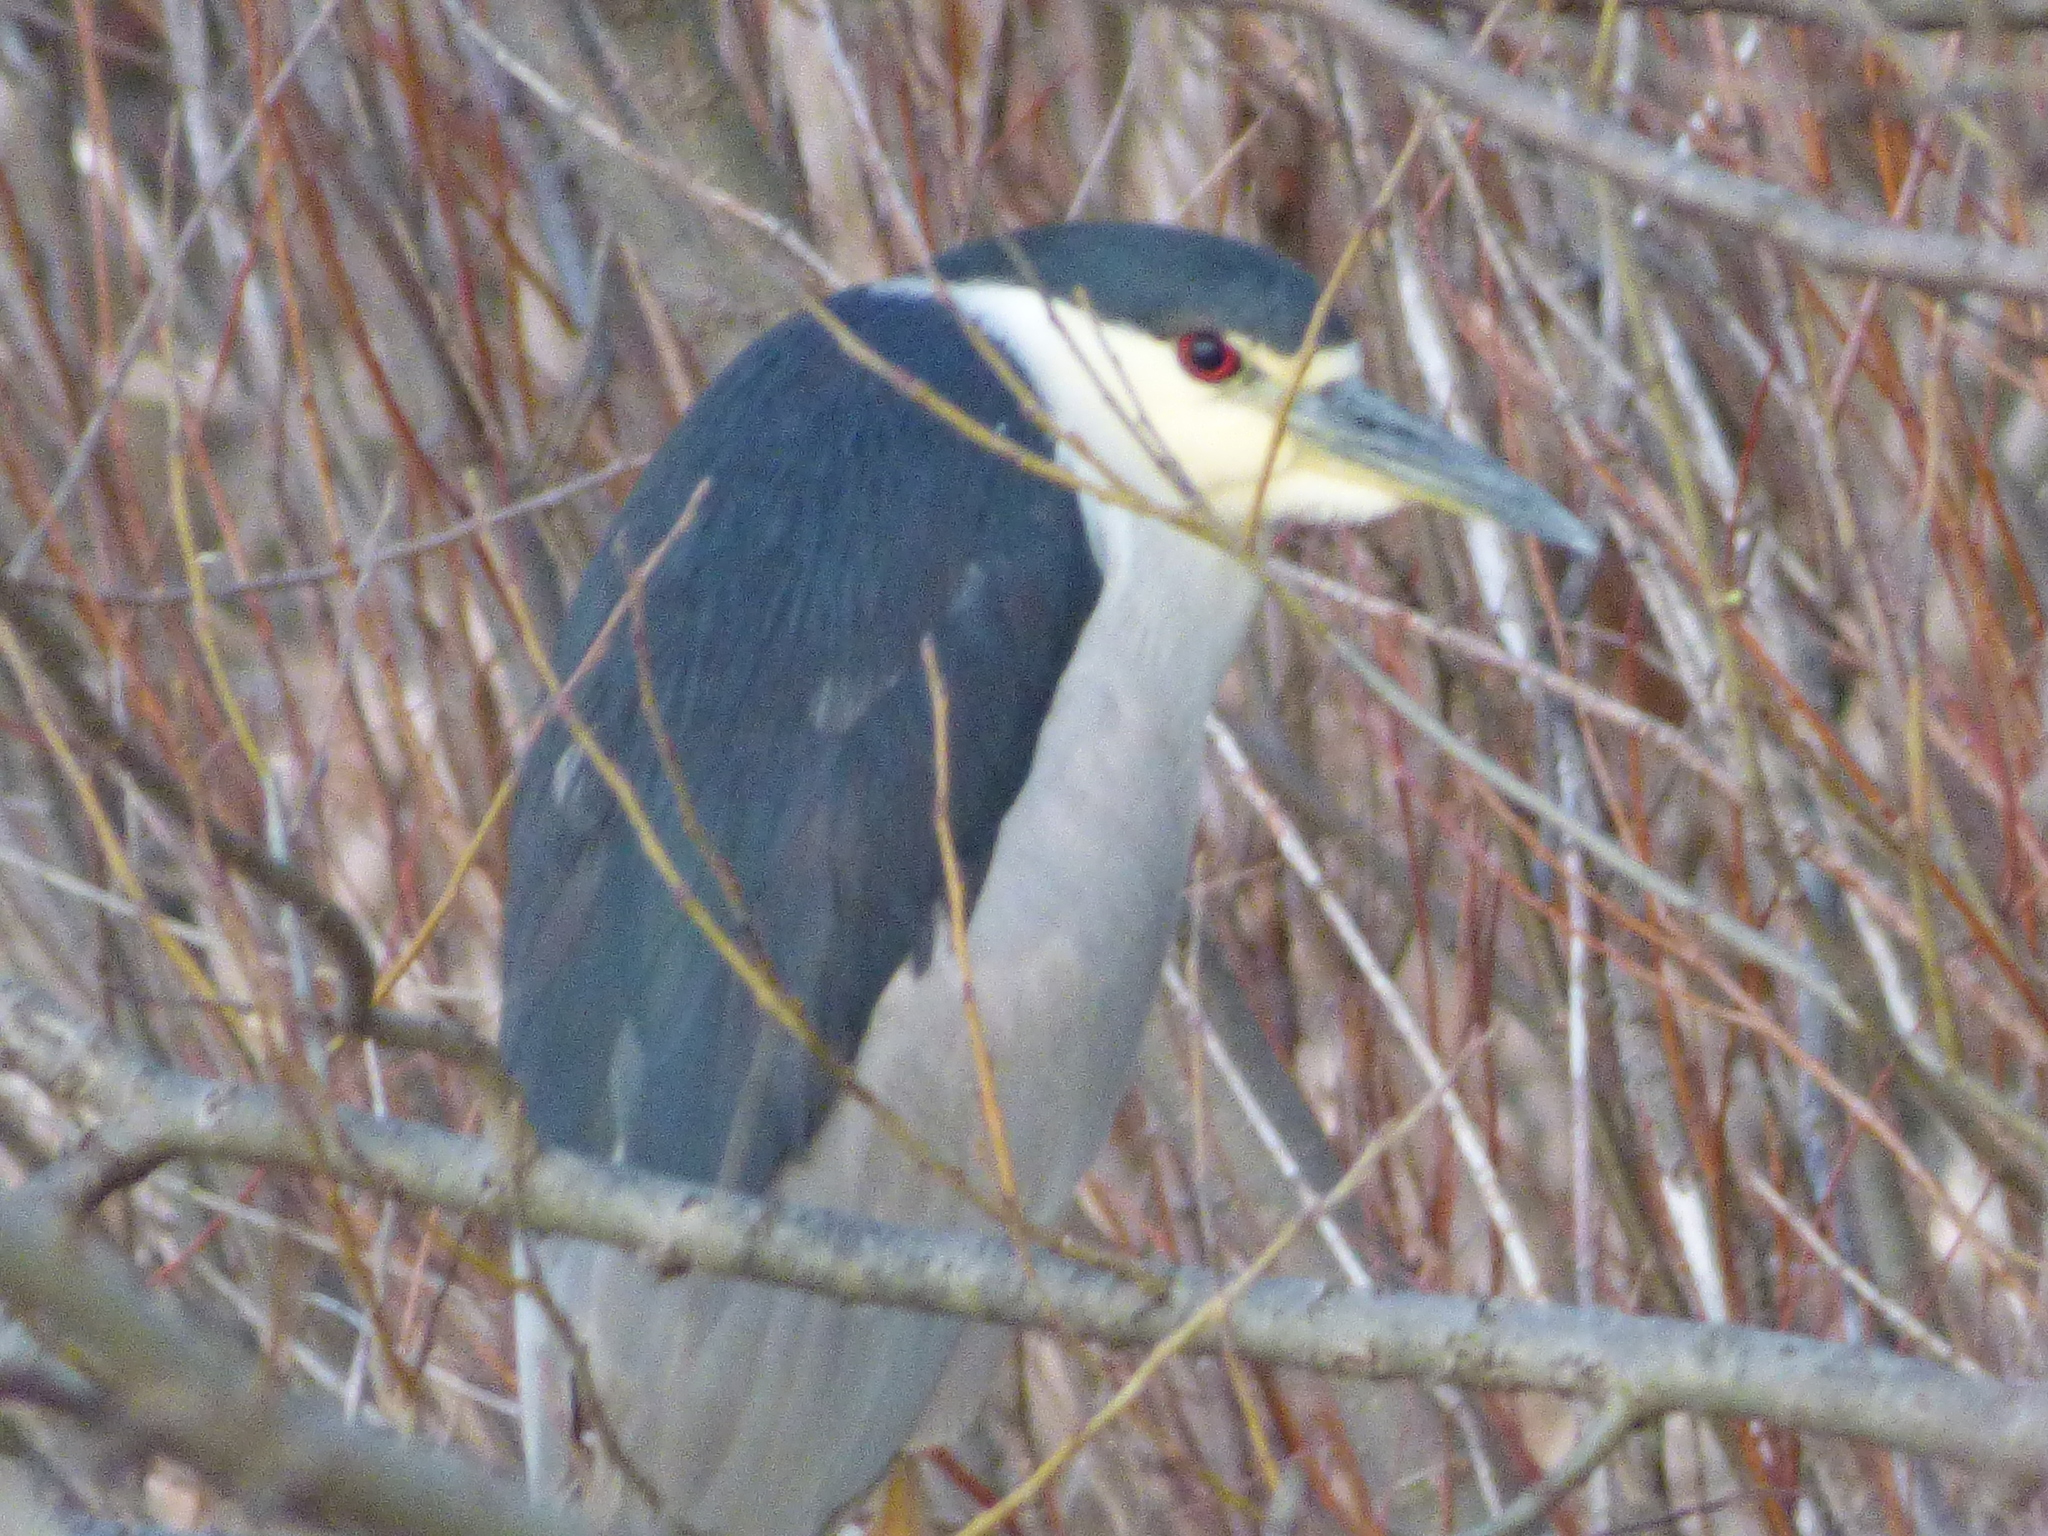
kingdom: Animalia
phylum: Chordata
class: Aves
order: Pelecaniformes
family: Ardeidae
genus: Nycticorax
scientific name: Nycticorax nycticorax
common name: Black-crowned night heron
